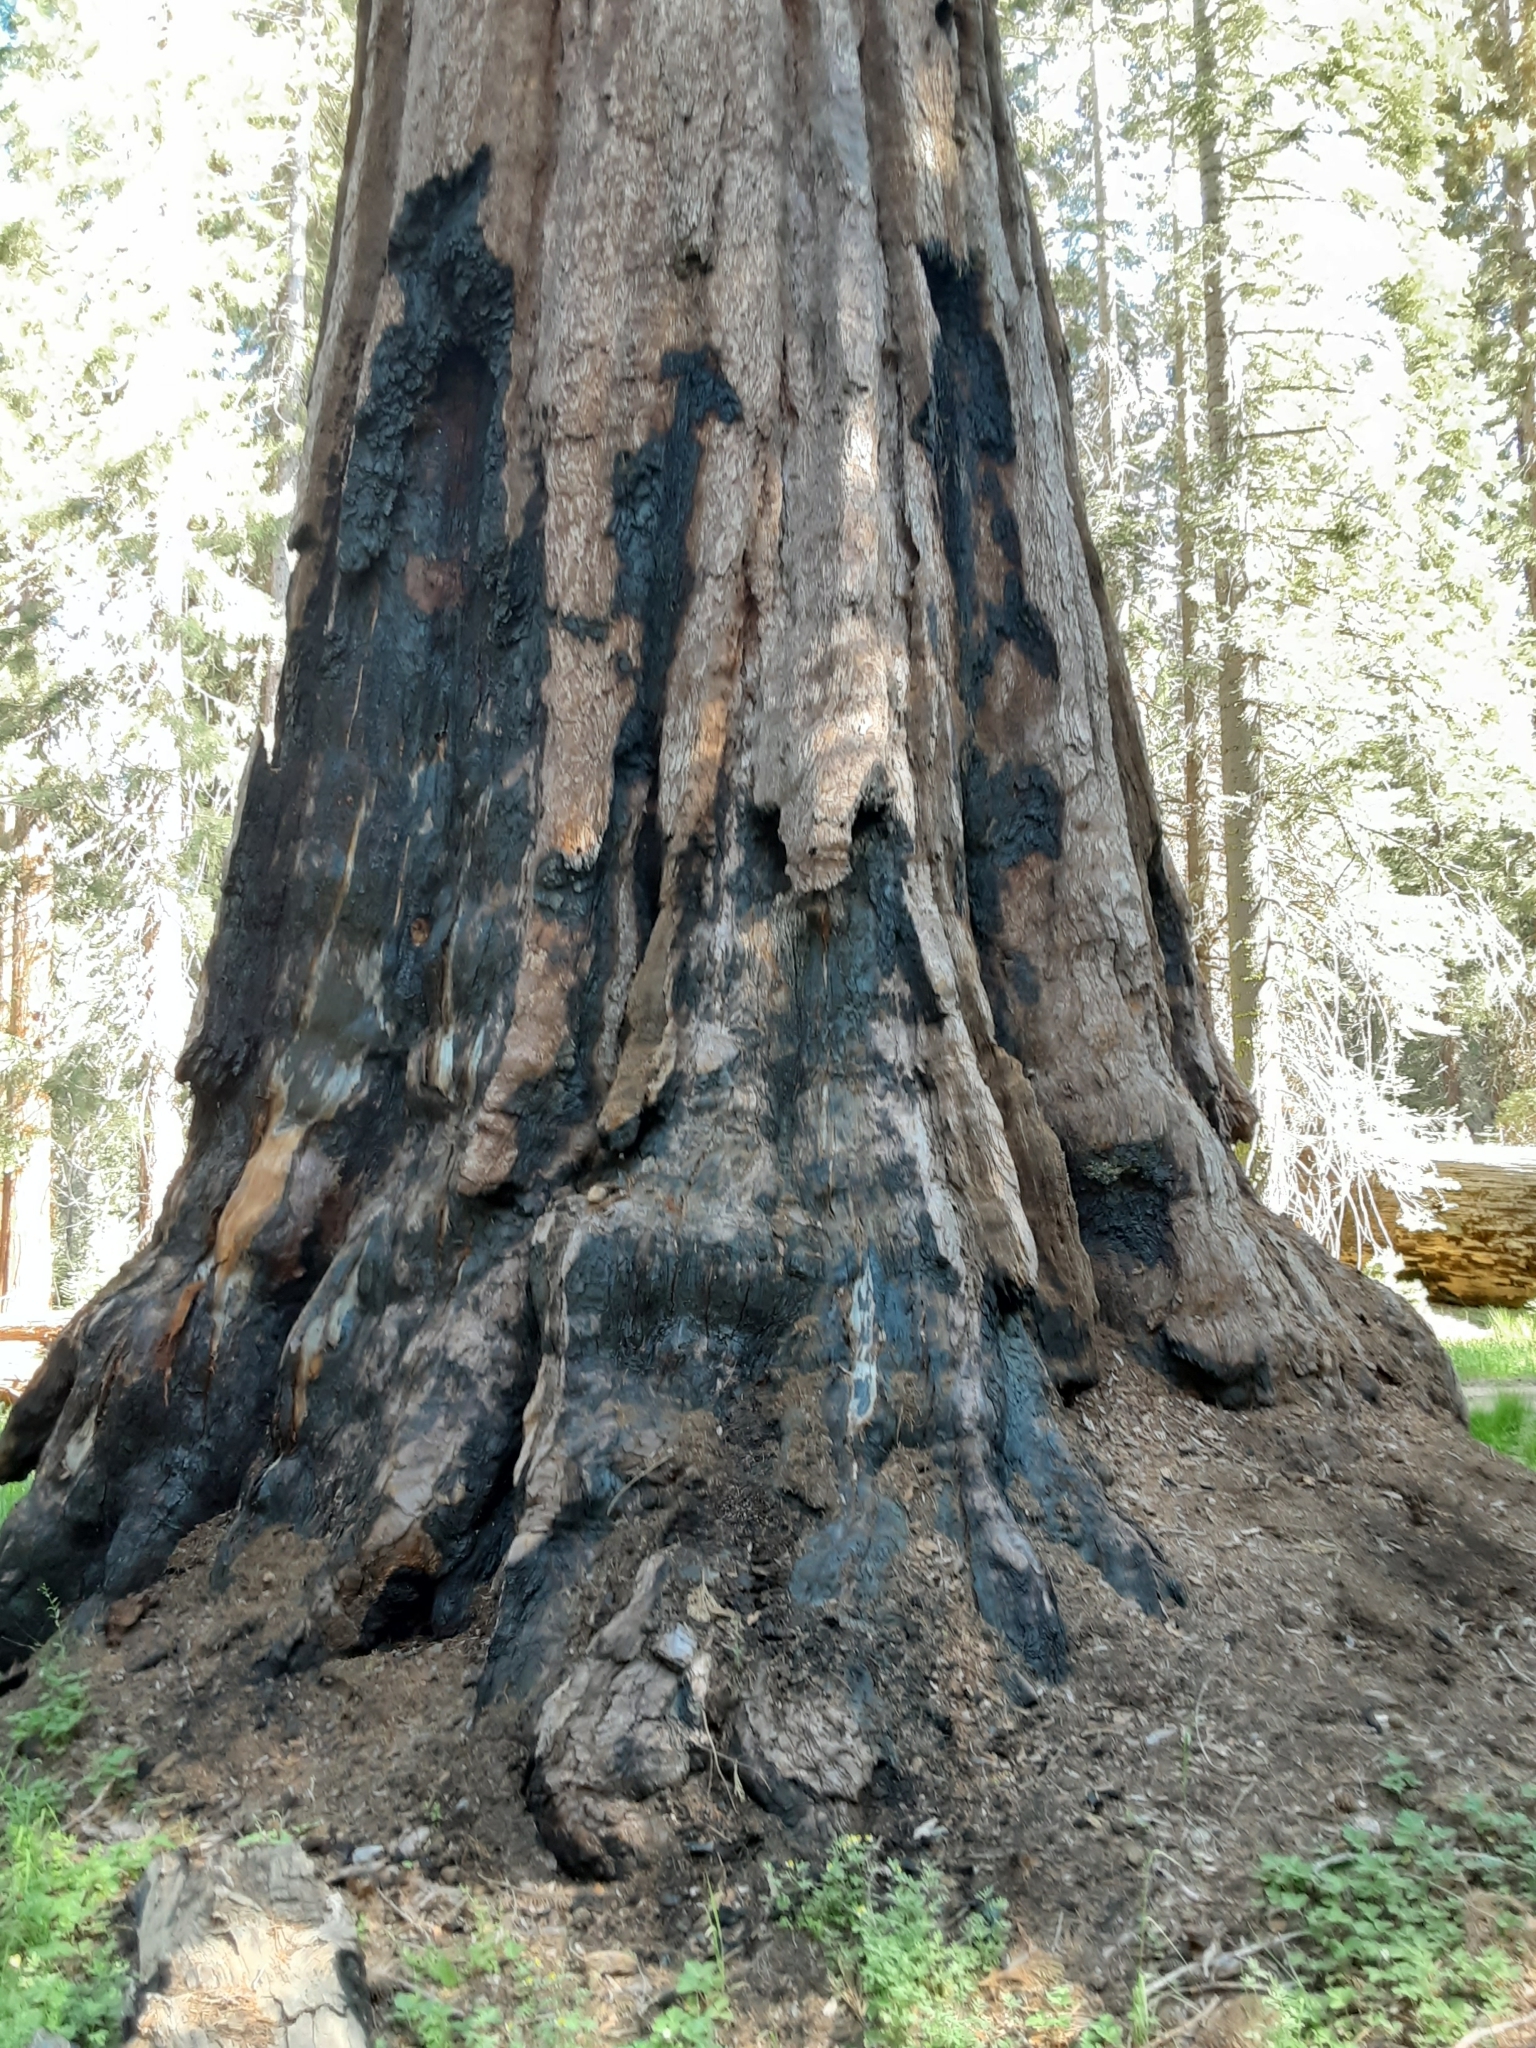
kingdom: Plantae
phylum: Tracheophyta
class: Pinopsida
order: Pinales
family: Cupressaceae
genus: Sequoiadendron
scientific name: Sequoiadendron giganteum
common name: Wellingtonia
